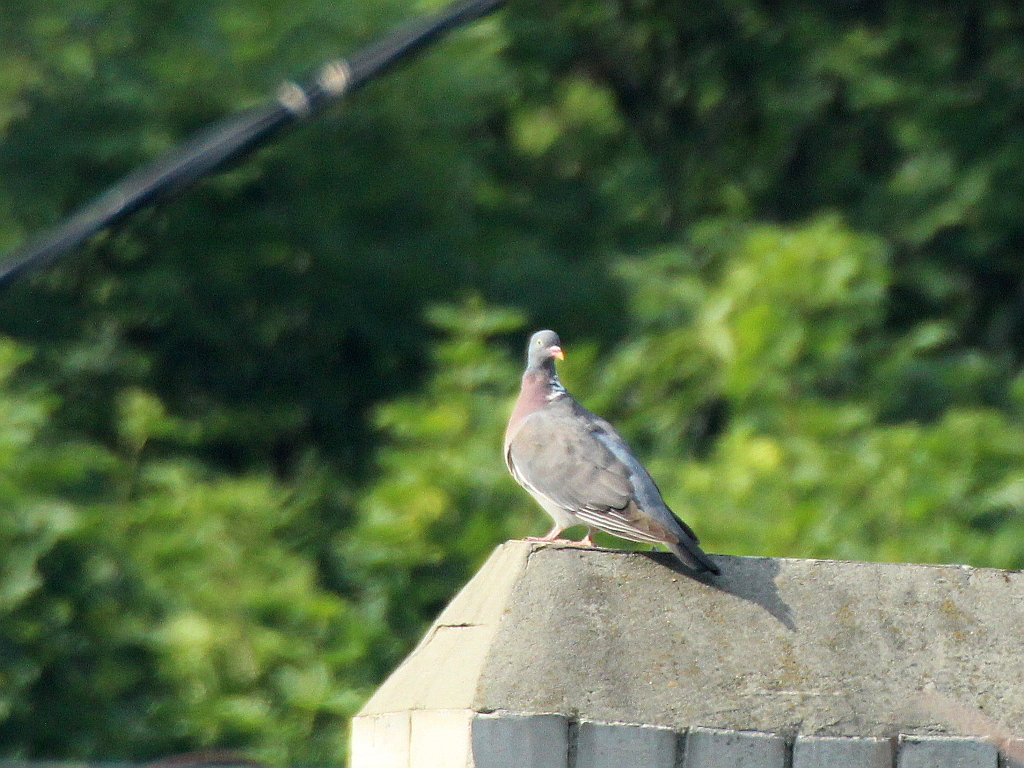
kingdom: Animalia
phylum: Chordata
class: Aves
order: Columbiformes
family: Columbidae
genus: Columba
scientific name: Columba palumbus
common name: Common wood pigeon
